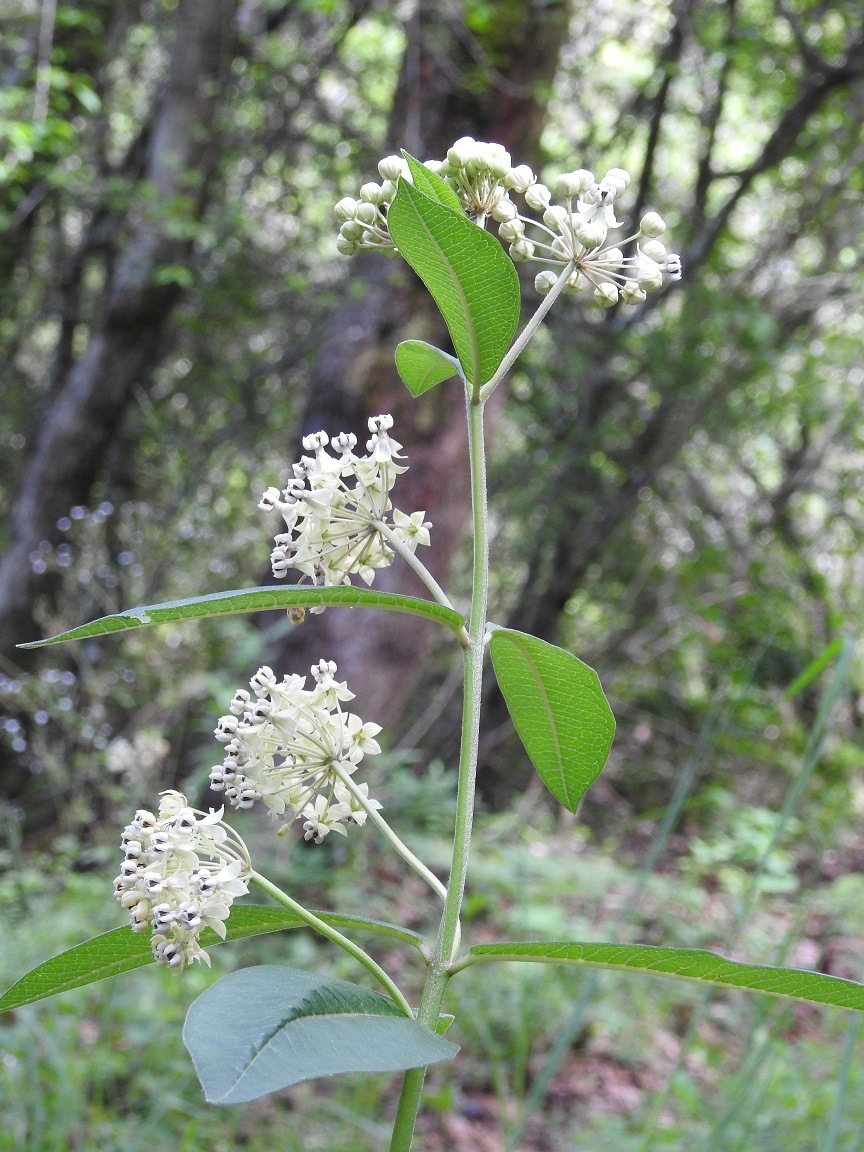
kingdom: Plantae
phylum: Tracheophyta
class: Magnoliopsida
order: Gentianales
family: Apocynaceae
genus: Asclepias
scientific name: Asclepias similis
